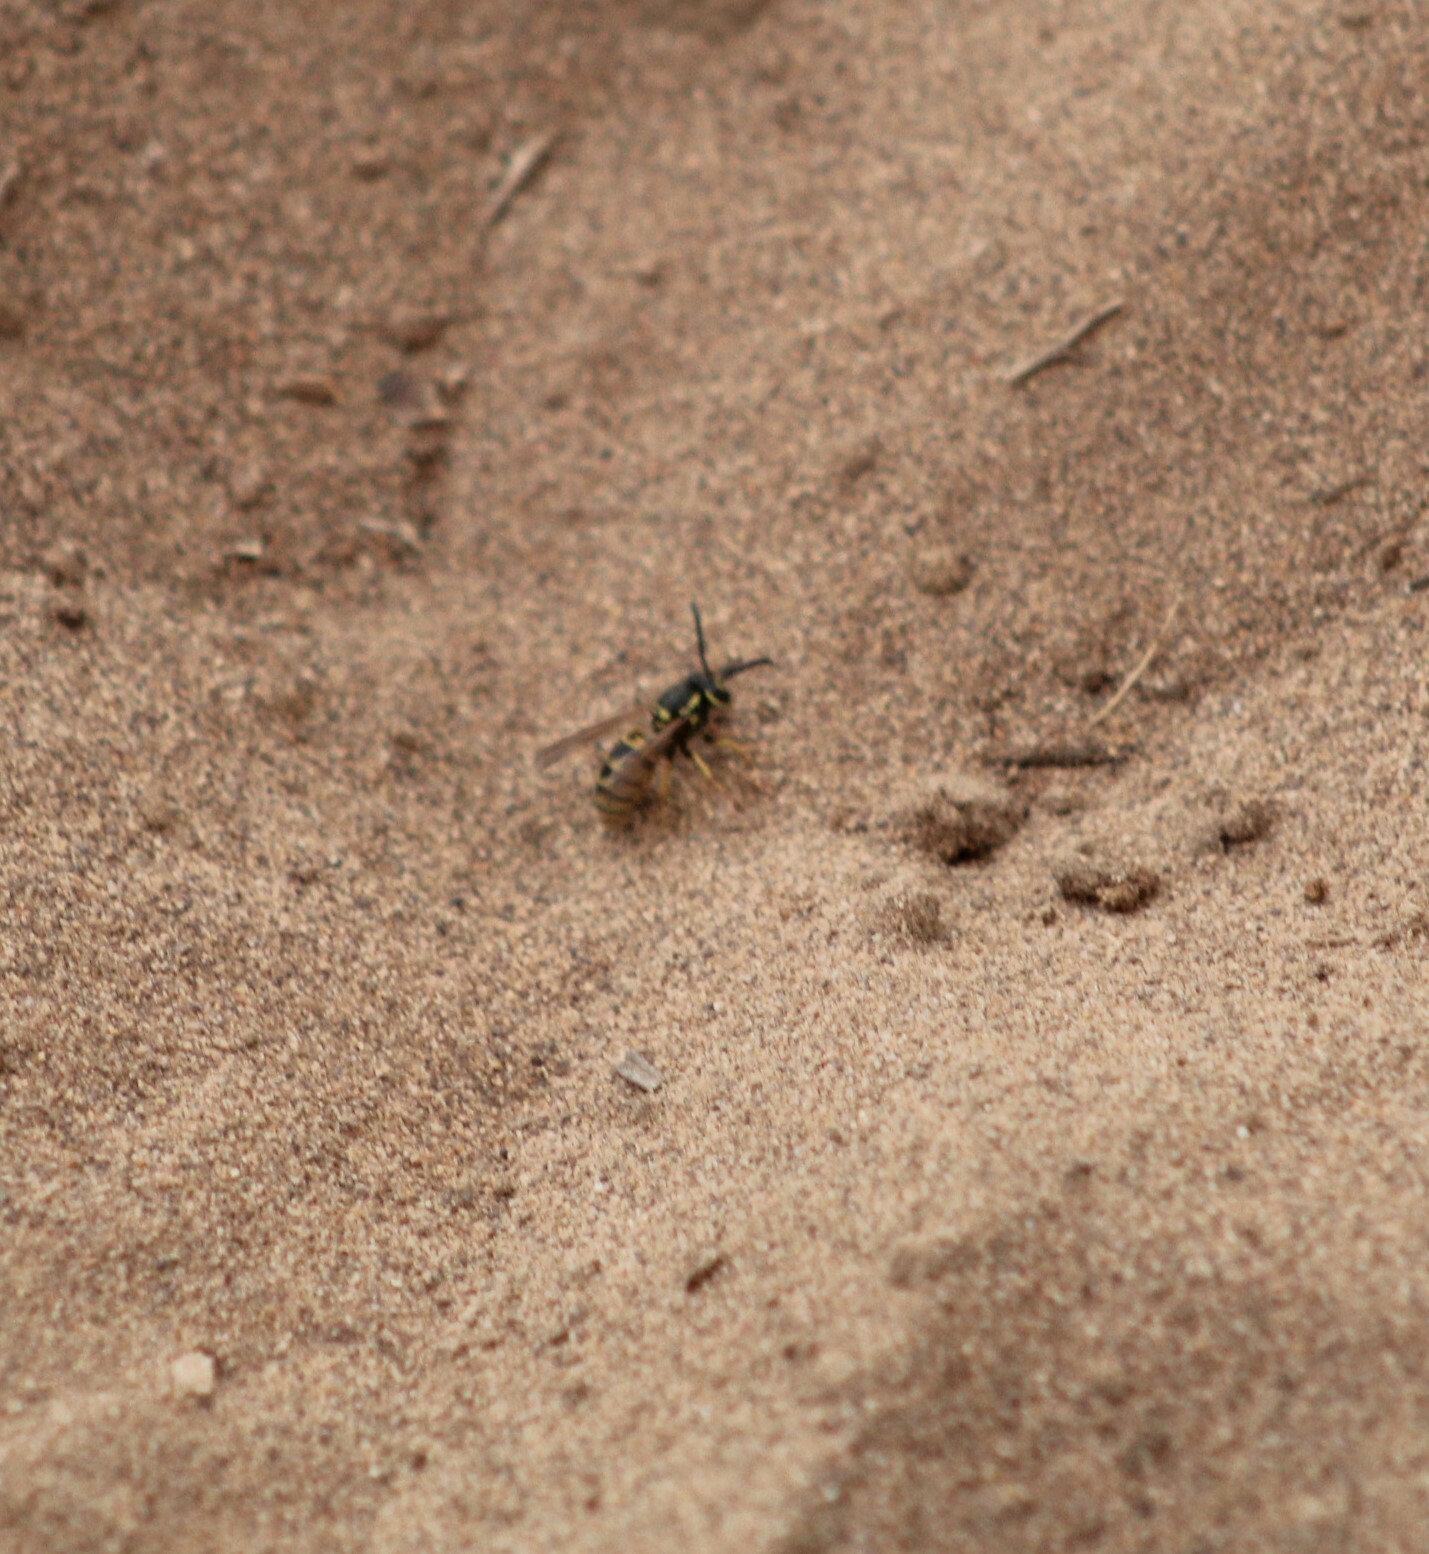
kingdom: Animalia
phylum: Arthropoda
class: Insecta
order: Hymenoptera
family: Vespidae
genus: Vespula
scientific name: Vespula germanica
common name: German wasp
